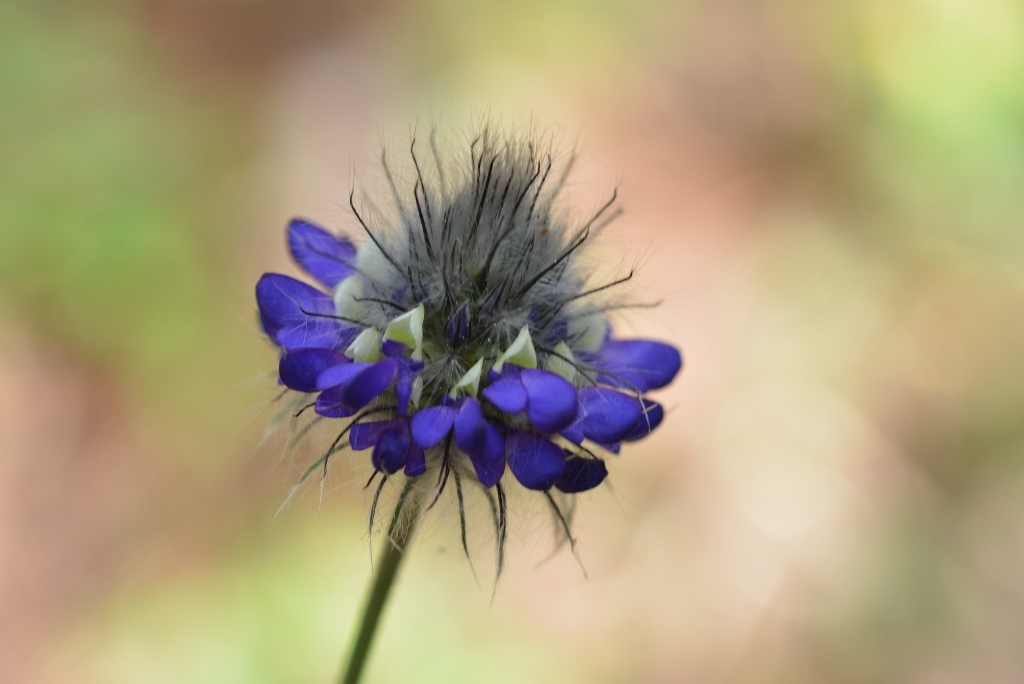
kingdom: Plantae
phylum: Tracheophyta
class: Magnoliopsida
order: Fabales
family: Fabaceae
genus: Dalea
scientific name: Dalea tomentosa
